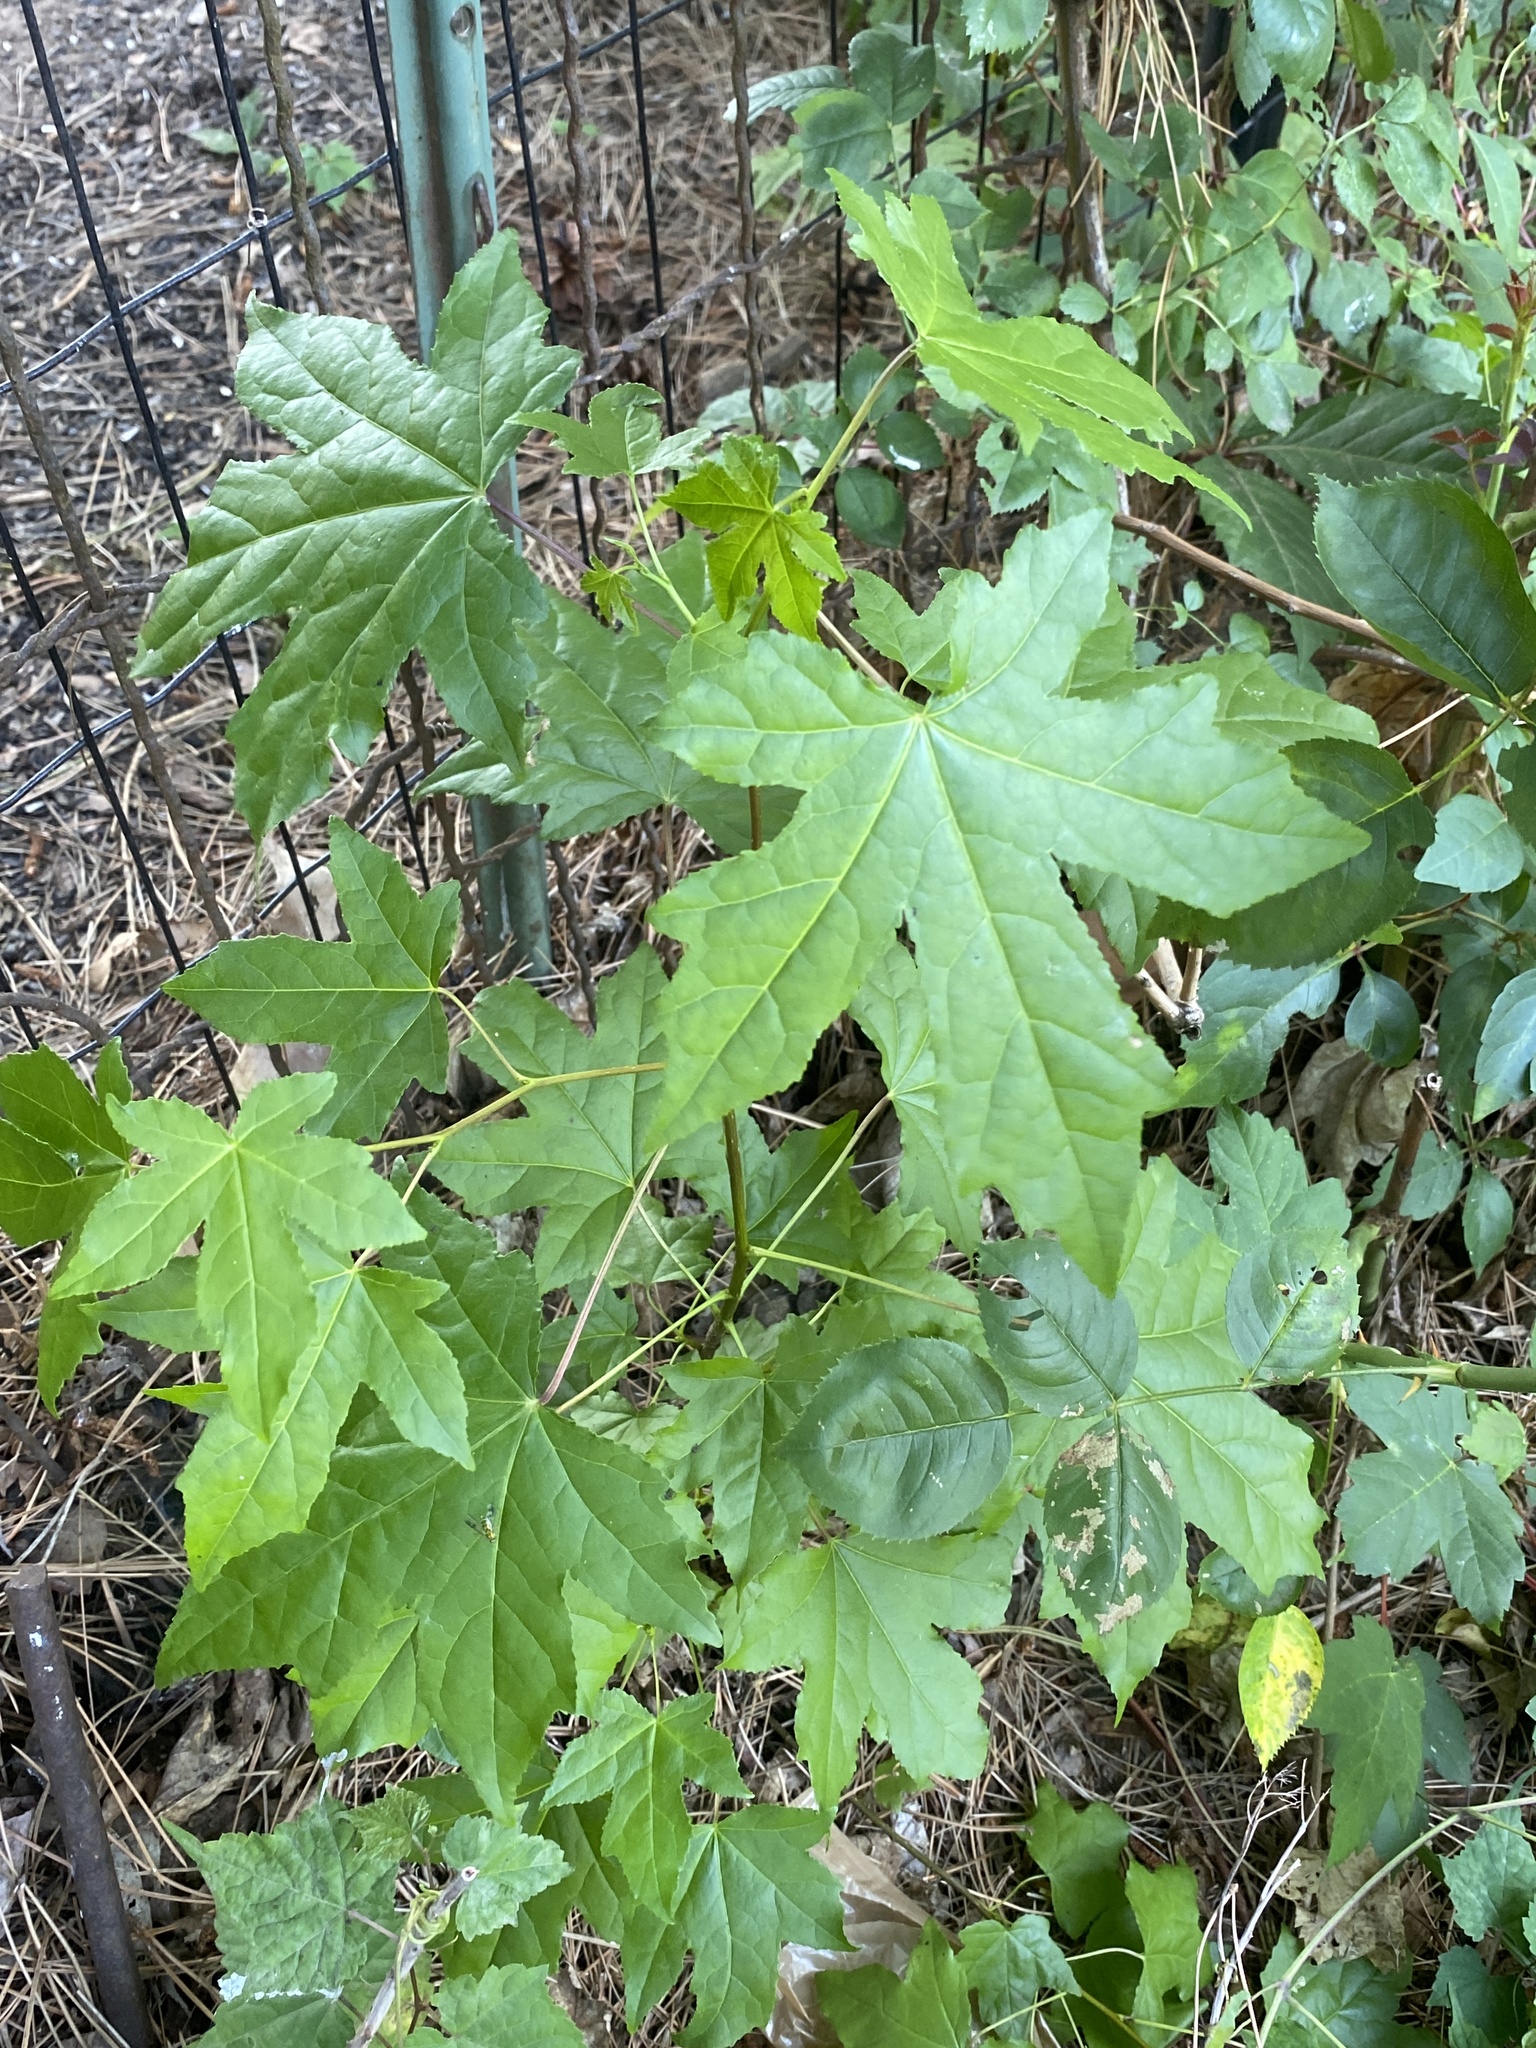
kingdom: Plantae
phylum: Tracheophyta
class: Magnoliopsida
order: Saxifragales
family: Altingiaceae
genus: Liquidambar
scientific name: Liquidambar styraciflua
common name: Sweet gum
